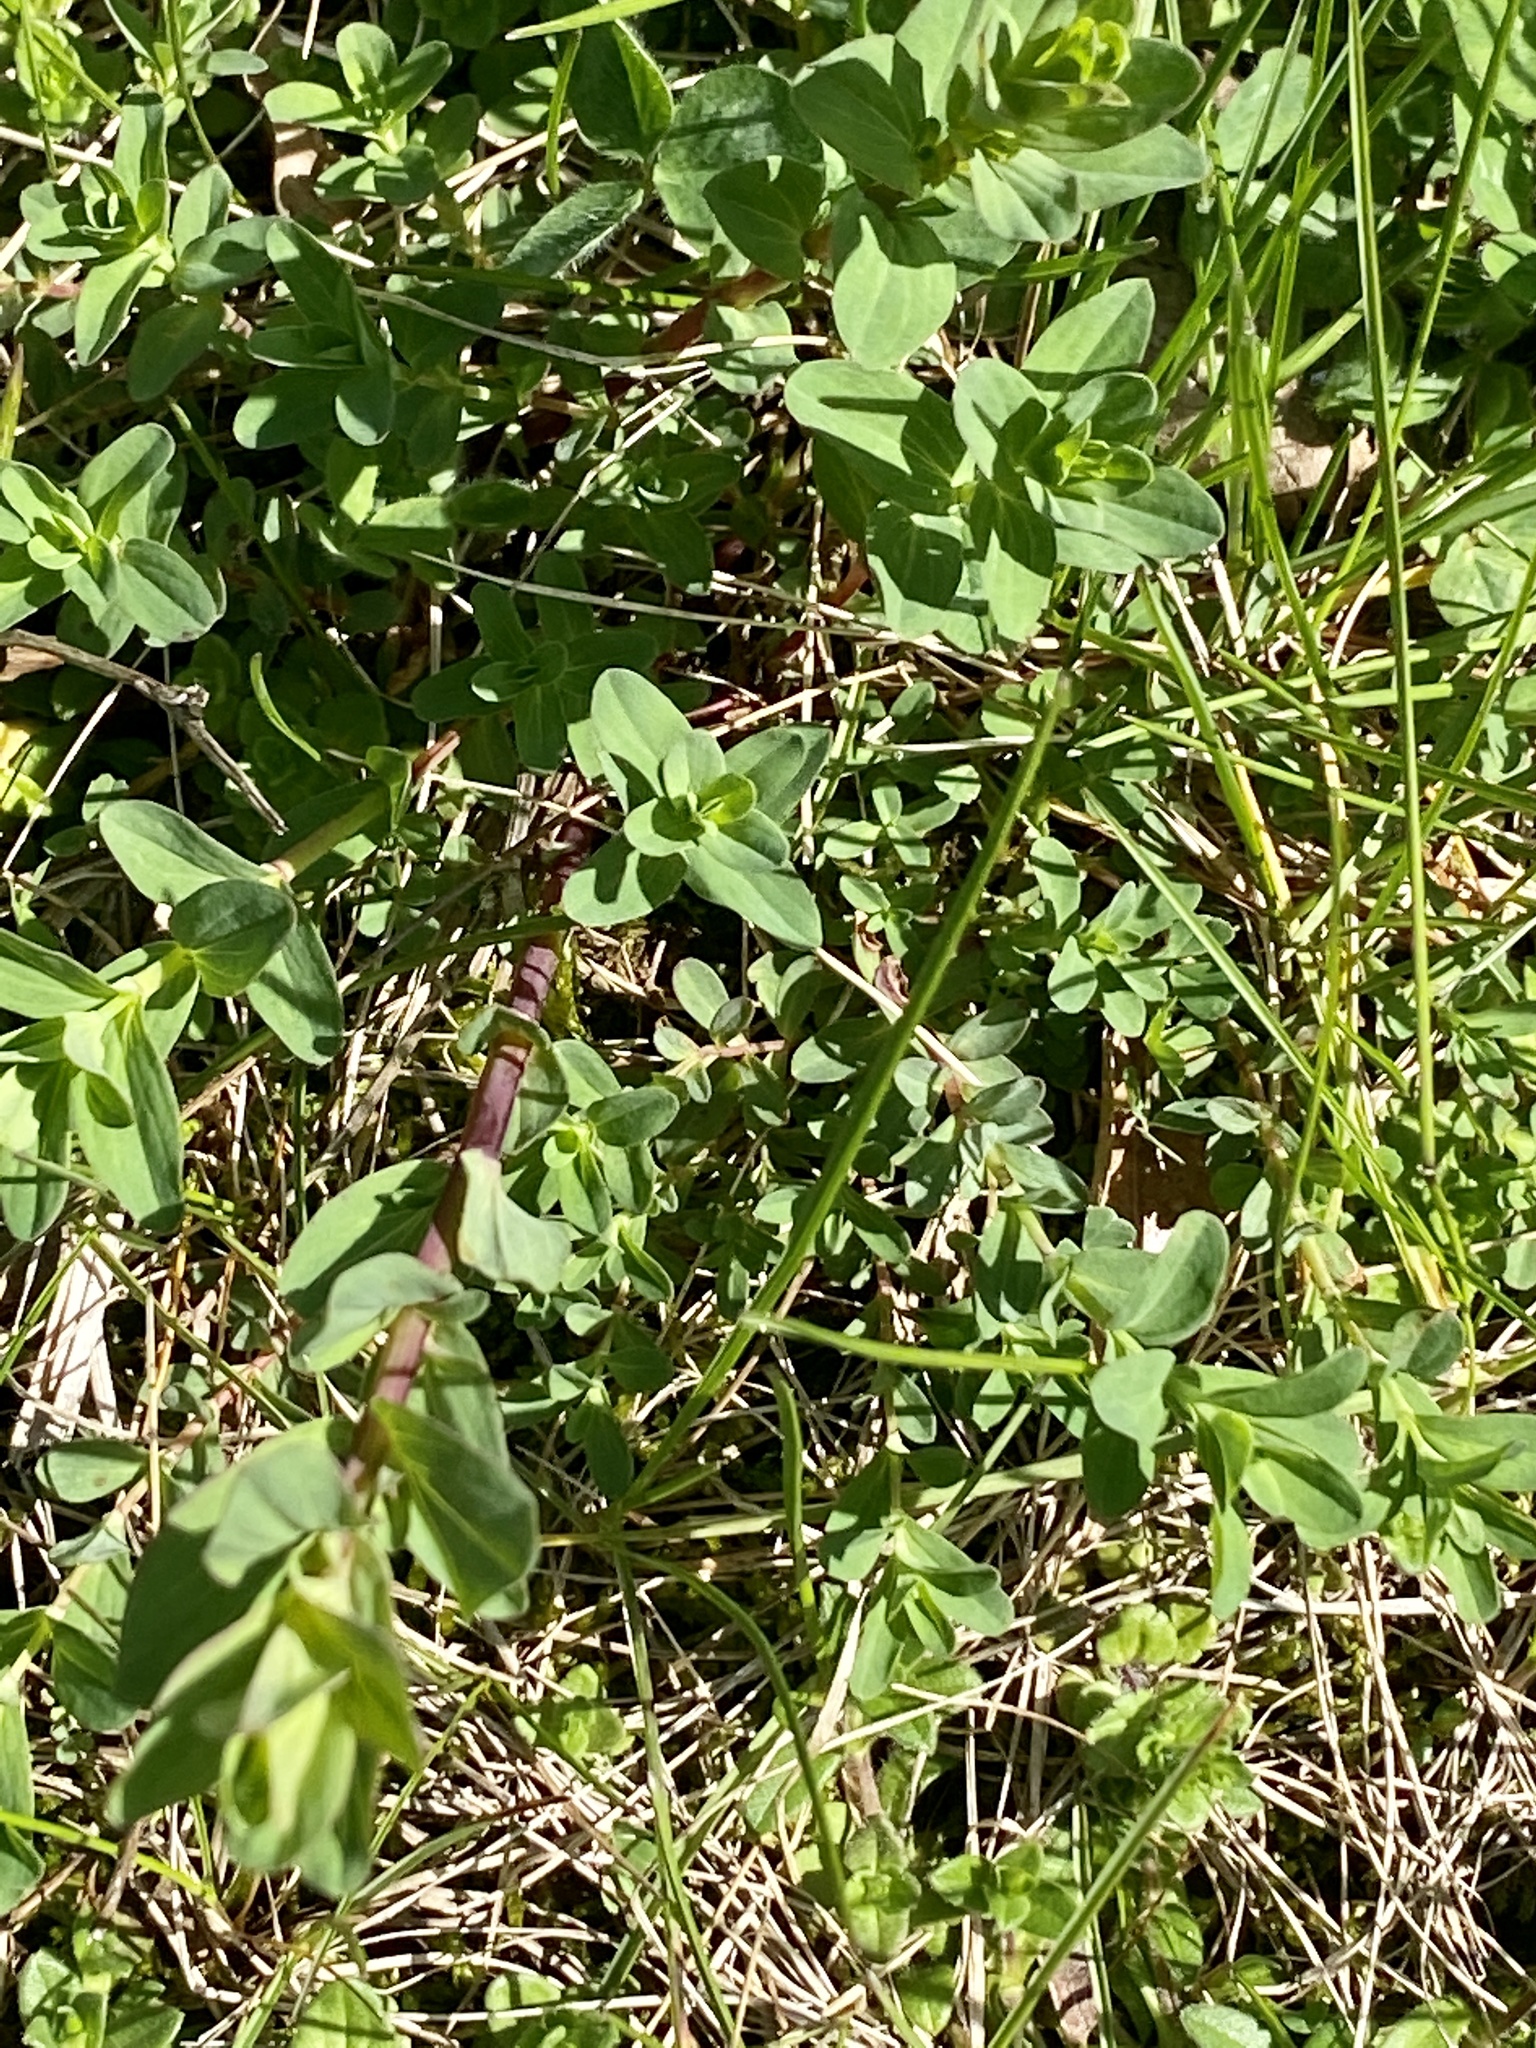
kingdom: Plantae
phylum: Tracheophyta
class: Magnoliopsida
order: Malpighiales
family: Hypericaceae
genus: Hypericum
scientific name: Hypericum perforatum
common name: Common st. johnswort
